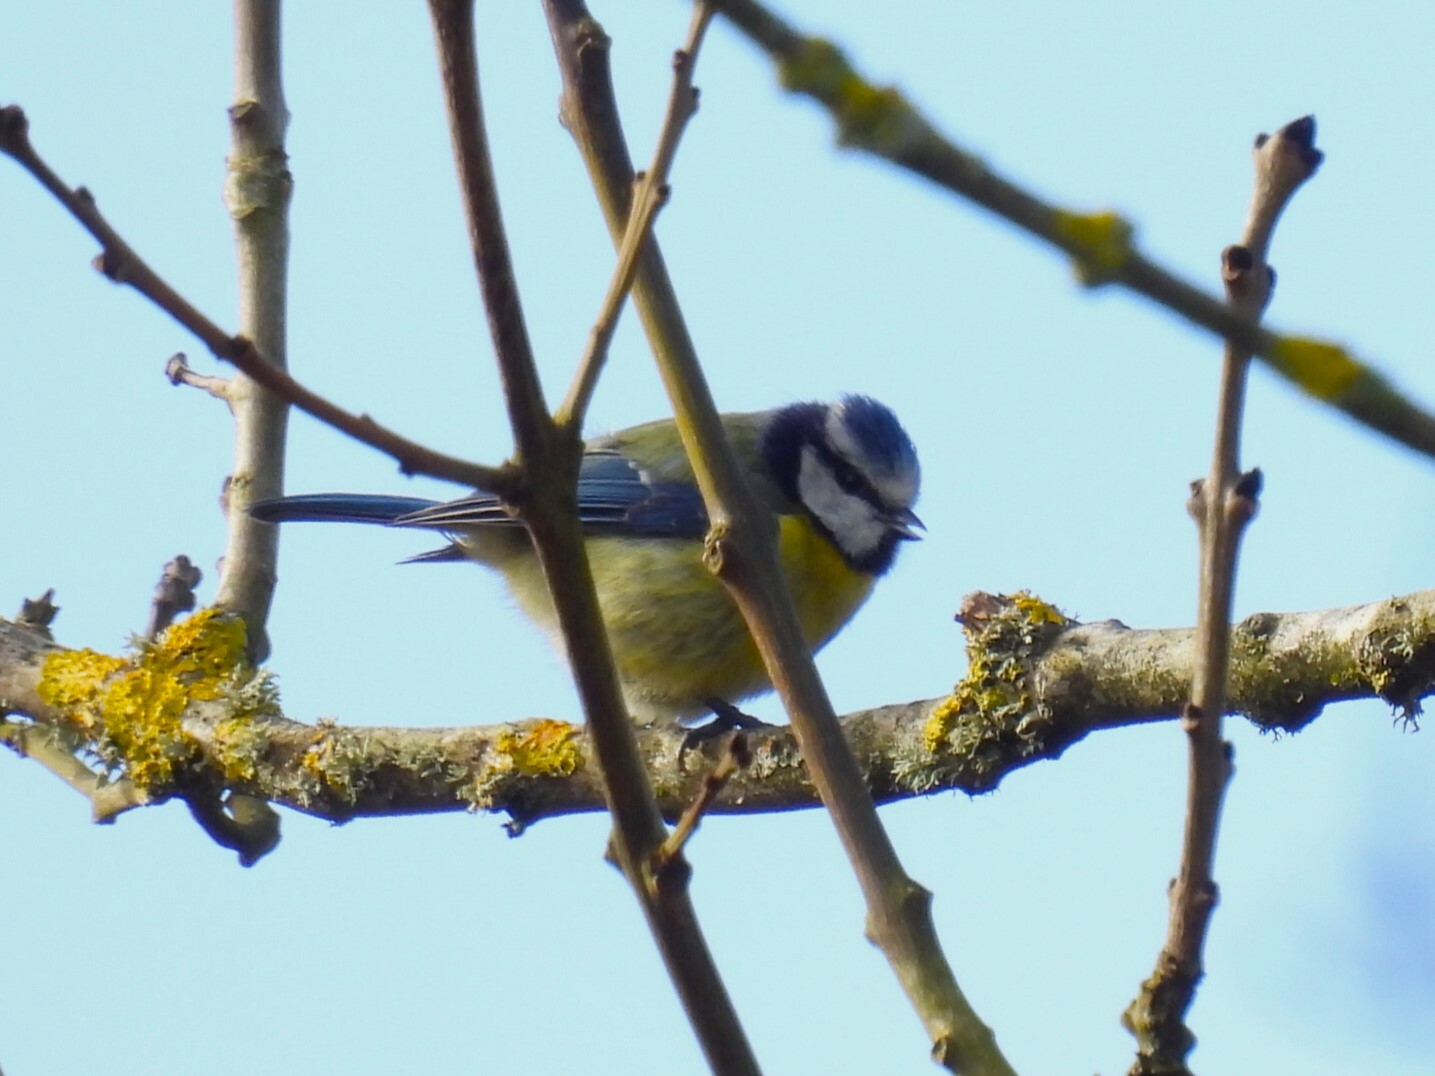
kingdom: Animalia
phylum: Chordata
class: Aves
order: Passeriformes
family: Paridae
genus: Cyanistes
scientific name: Cyanistes caeruleus
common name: Eurasian blue tit
